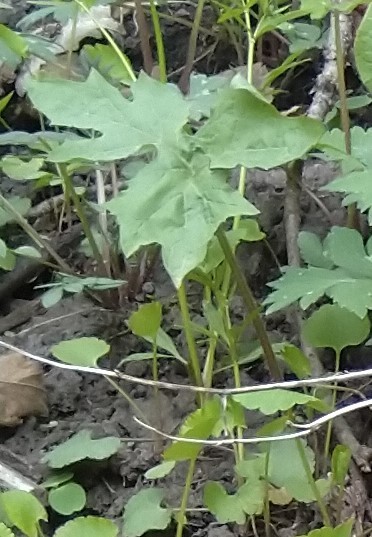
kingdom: Plantae
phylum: Tracheophyta
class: Magnoliopsida
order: Asterales
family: Asteraceae
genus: Nabalus
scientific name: Nabalus albus
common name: White rattlesnakeroot
